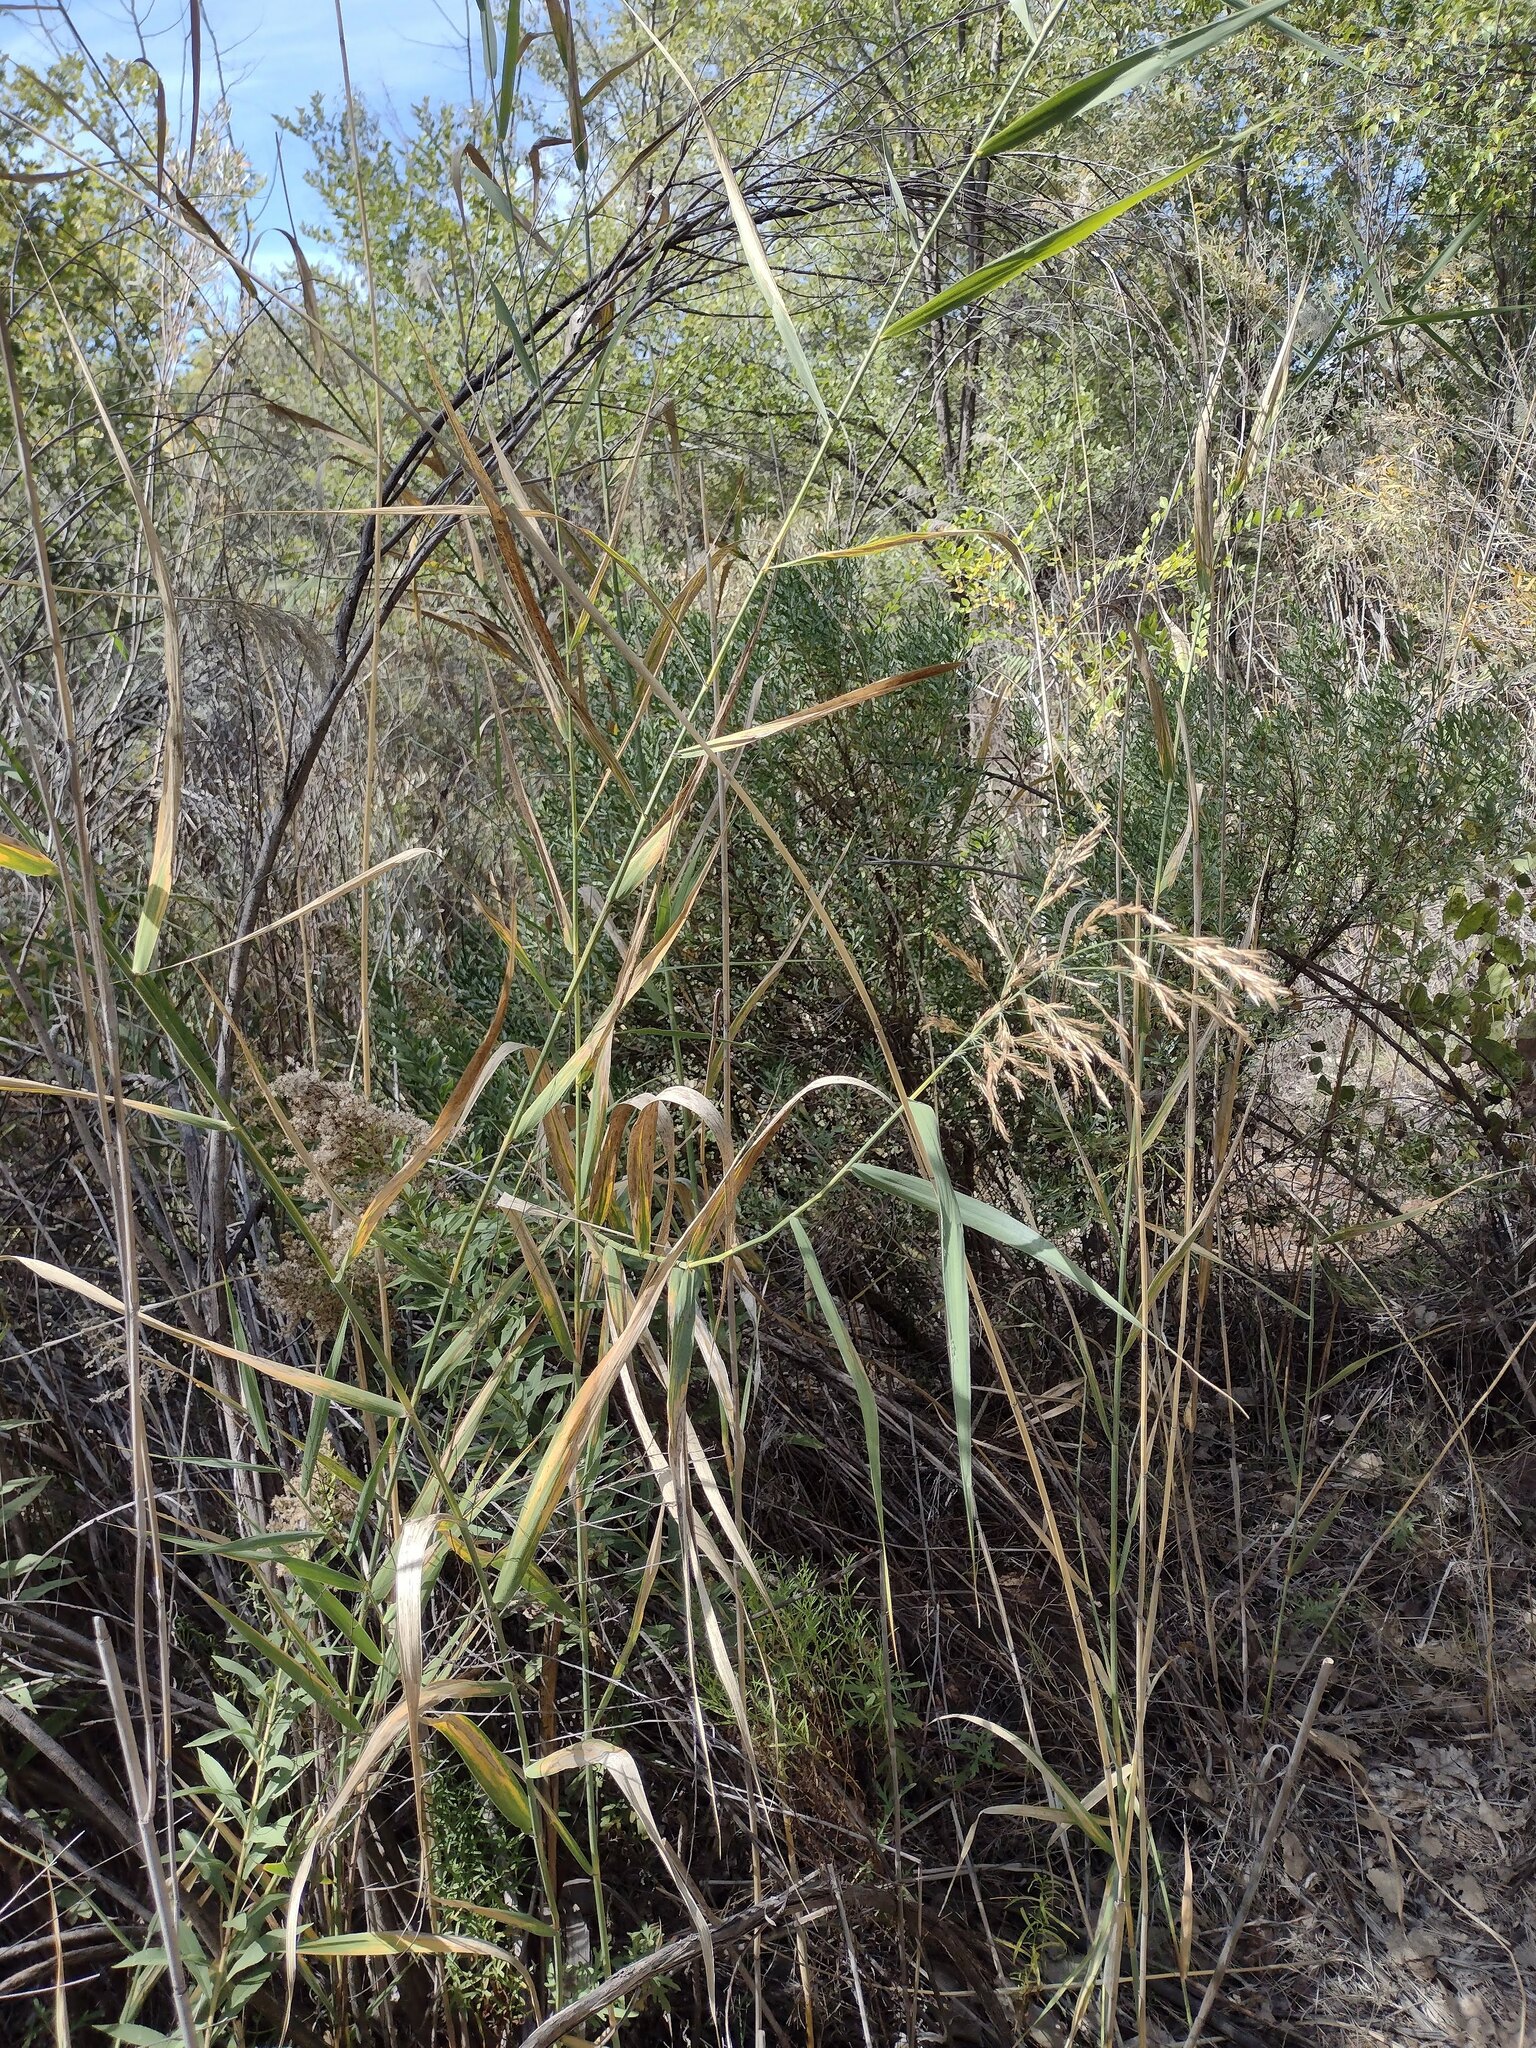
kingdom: Plantae
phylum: Tracheophyta
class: Liliopsida
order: Poales
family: Poaceae
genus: Phragmites
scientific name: Phragmites australis
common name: Common reed
